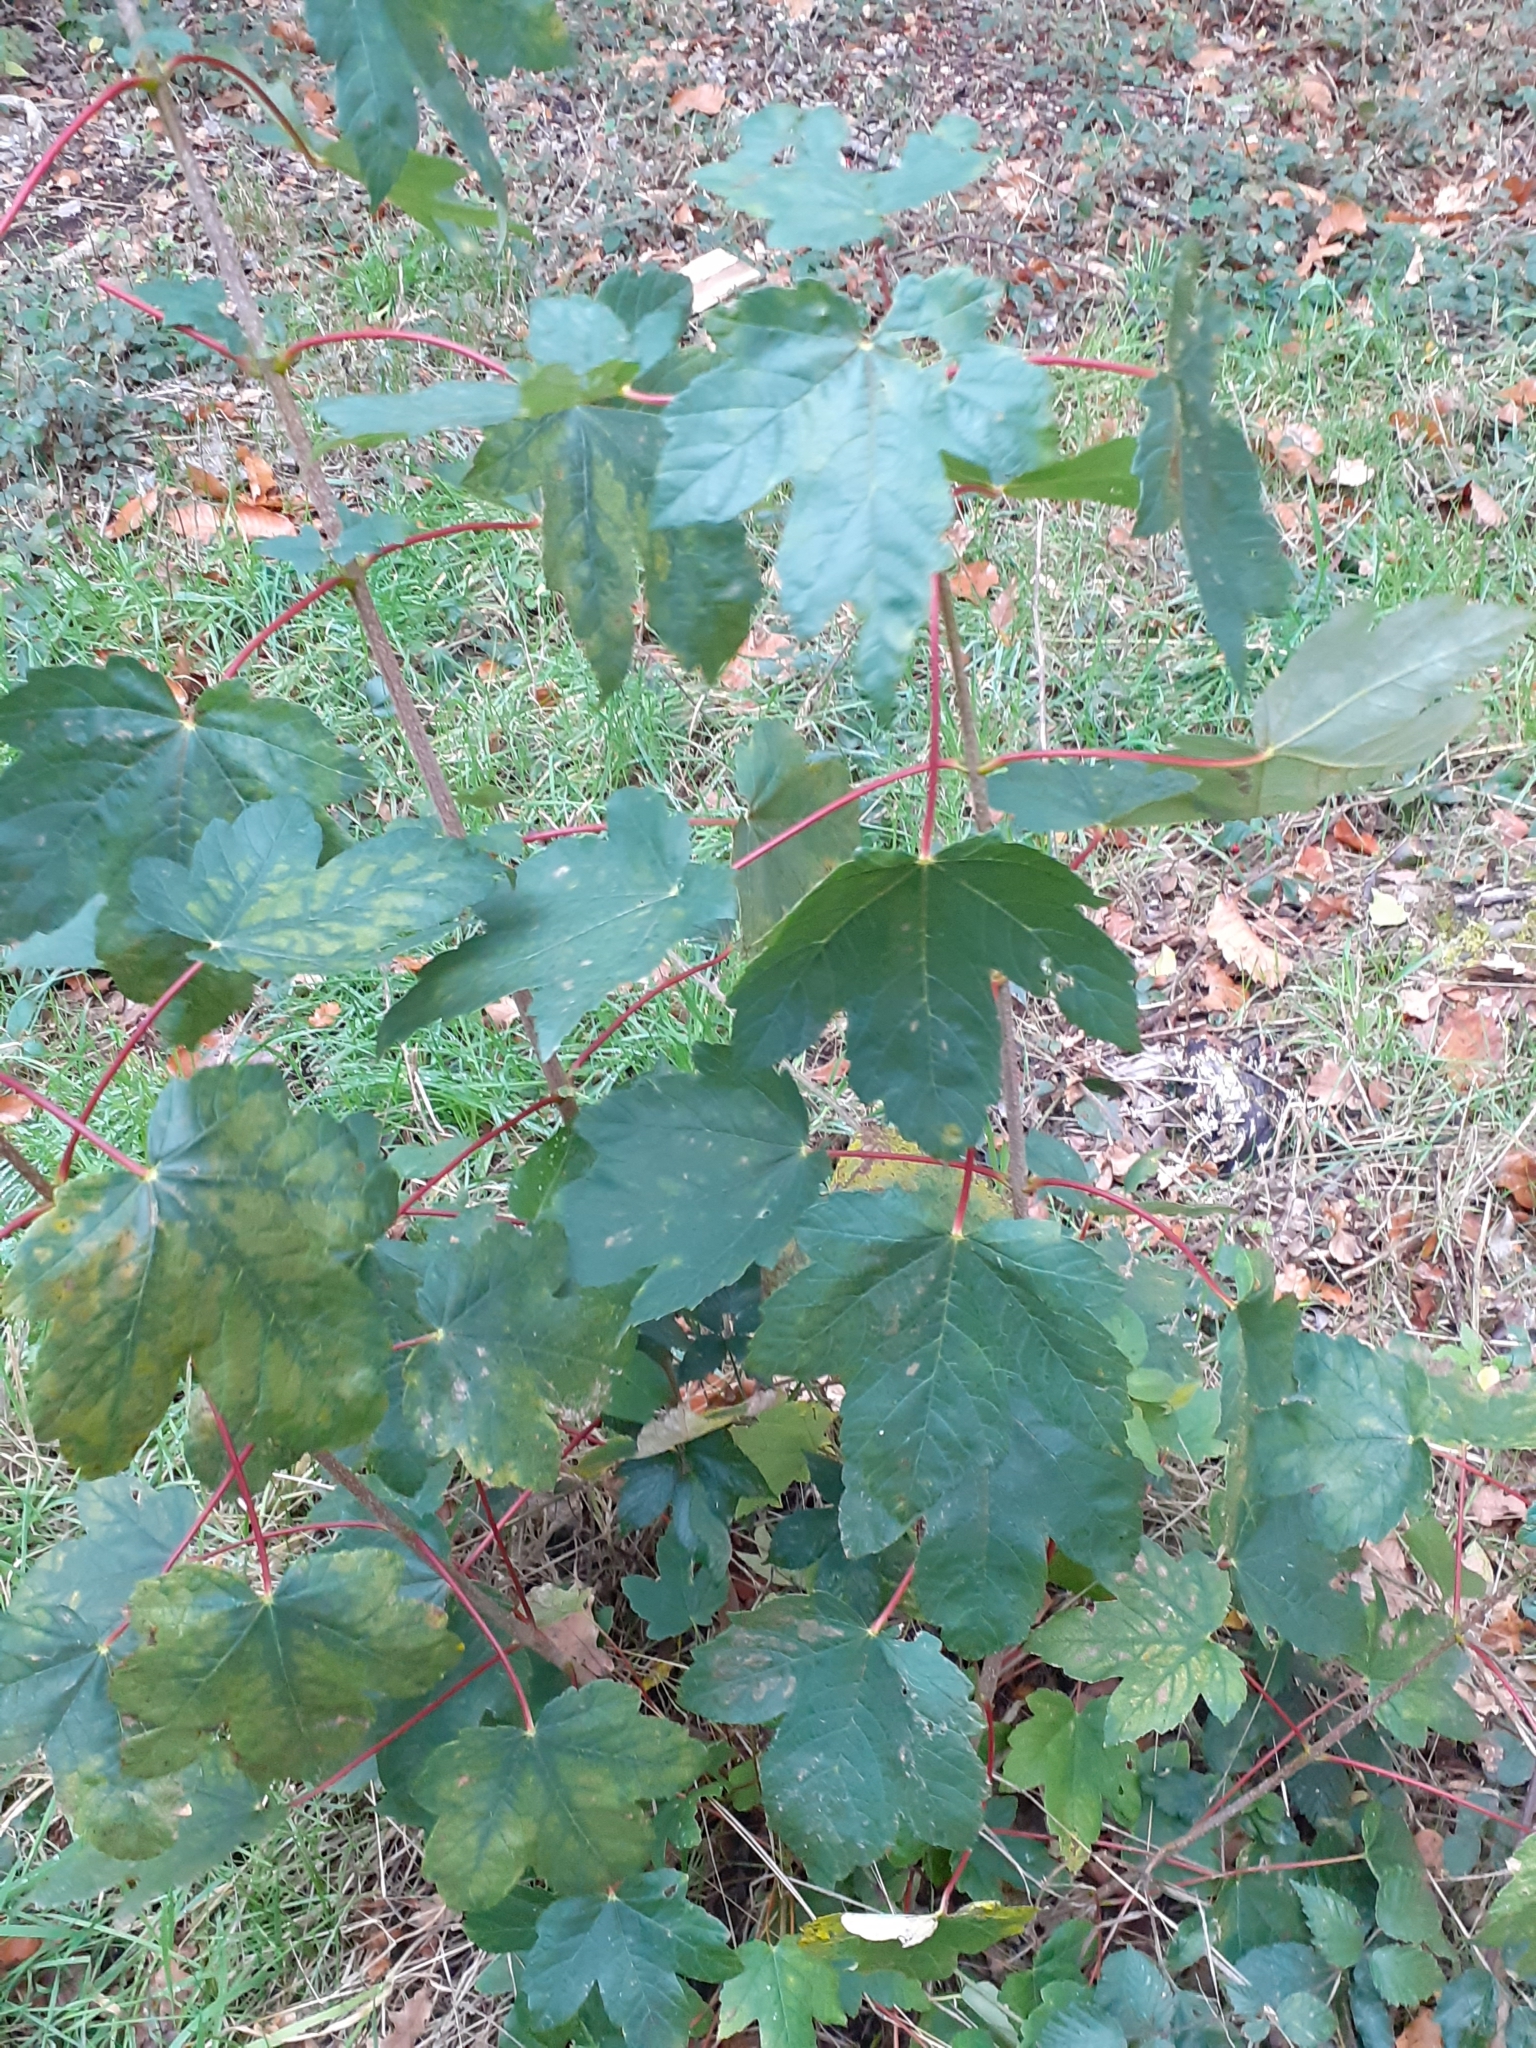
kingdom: Plantae
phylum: Tracheophyta
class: Magnoliopsida
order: Sapindales
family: Sapindaceae
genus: Acer
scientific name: Acer pseudoplatanus
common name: Sycamore
